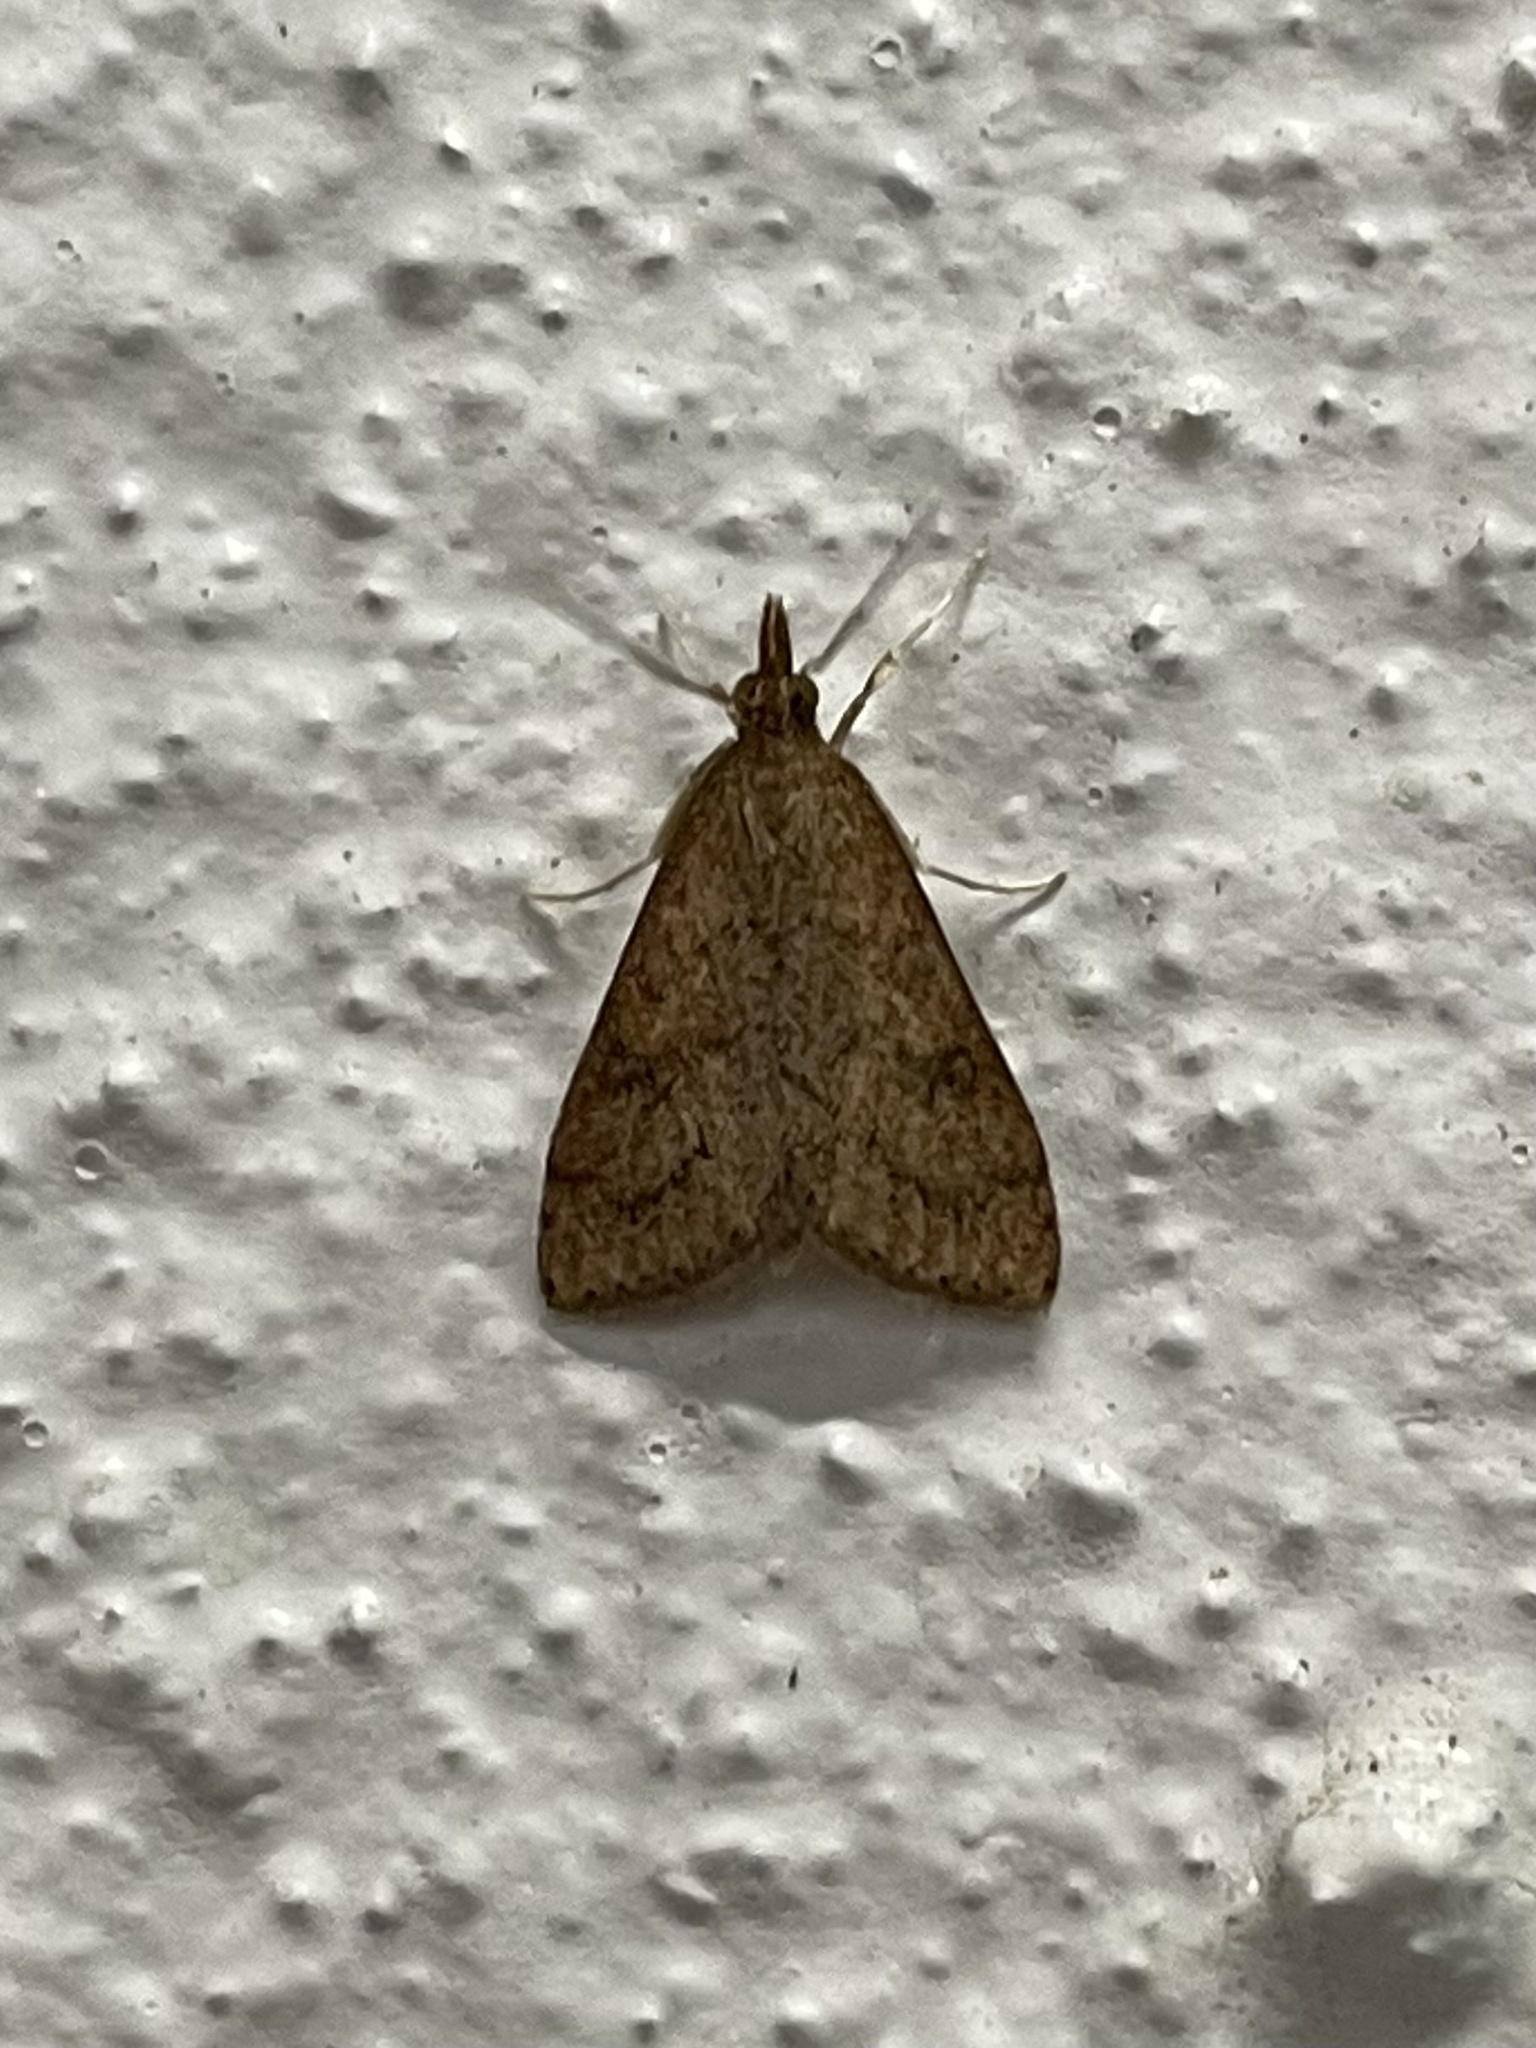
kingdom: Animalia
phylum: Arthropoda
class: Insecta
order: Lepidoptera
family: Crambidae
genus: Udea
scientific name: Udea rubigalis
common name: Celery leaftier moth
